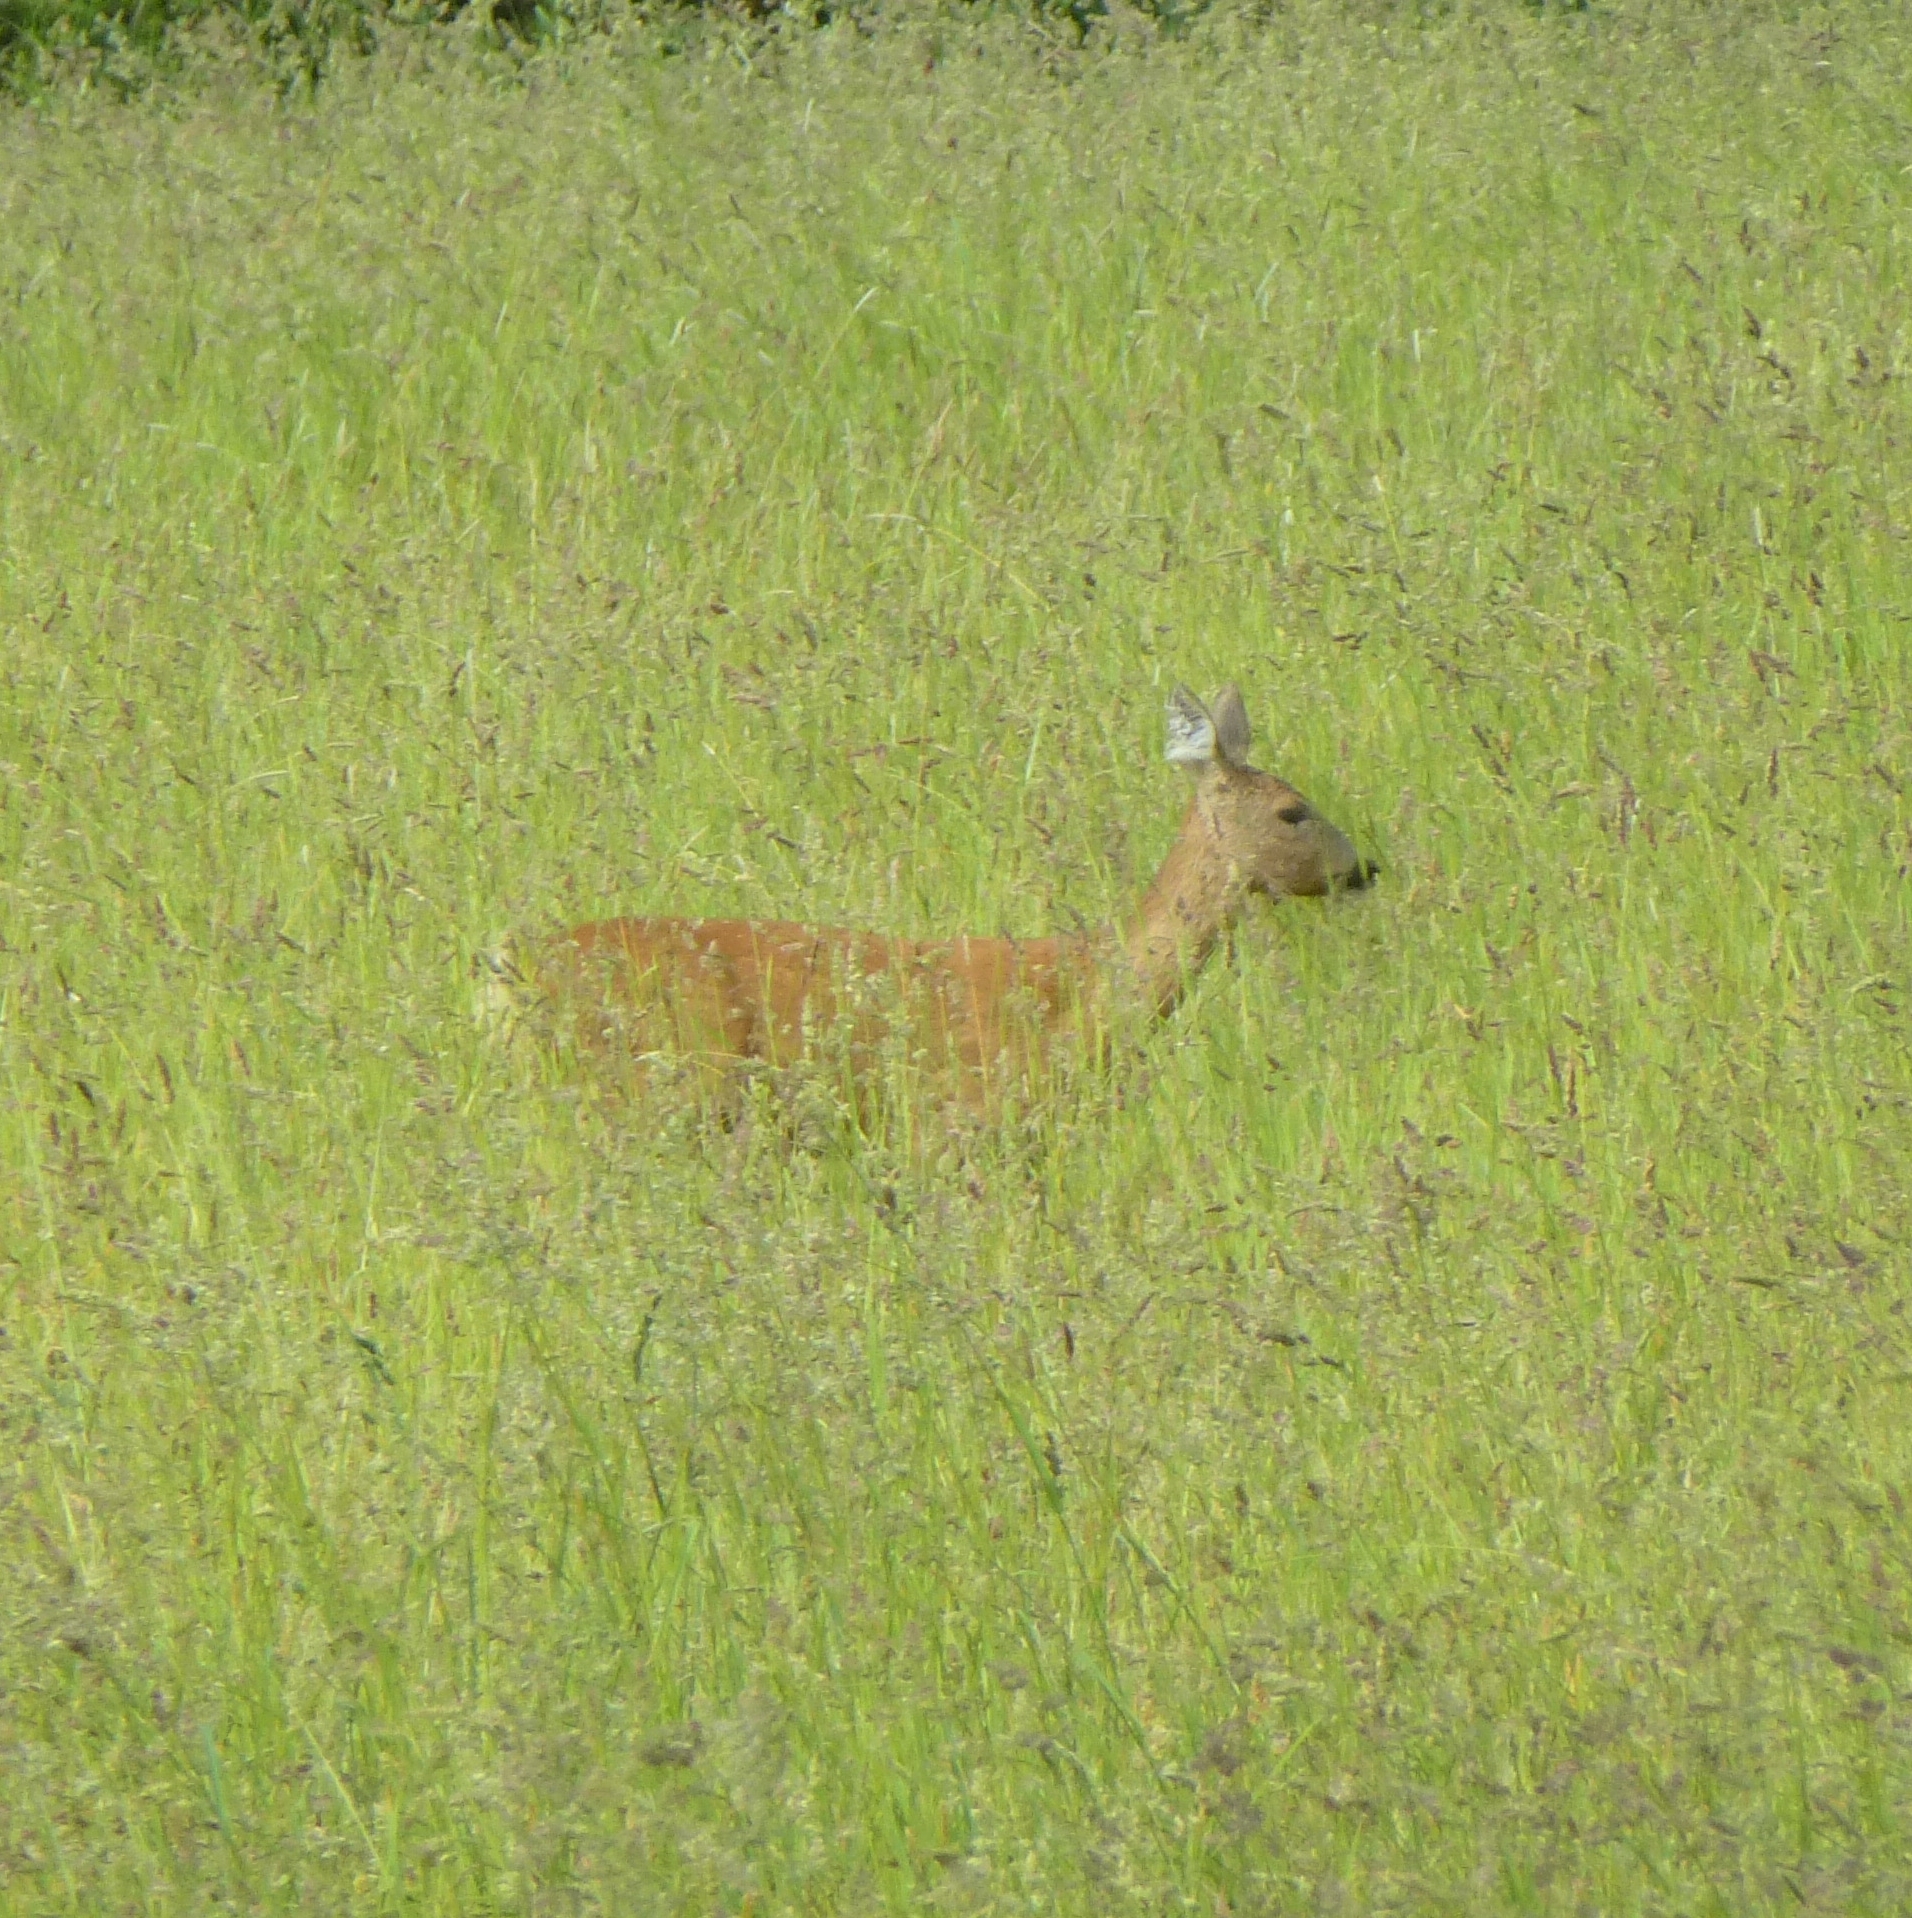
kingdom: Animalia
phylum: Chordata
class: Mammalia
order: Artiodactyla
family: Cervidae
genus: Capreolus
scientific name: Capreolus capreolus
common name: Western roe deer
